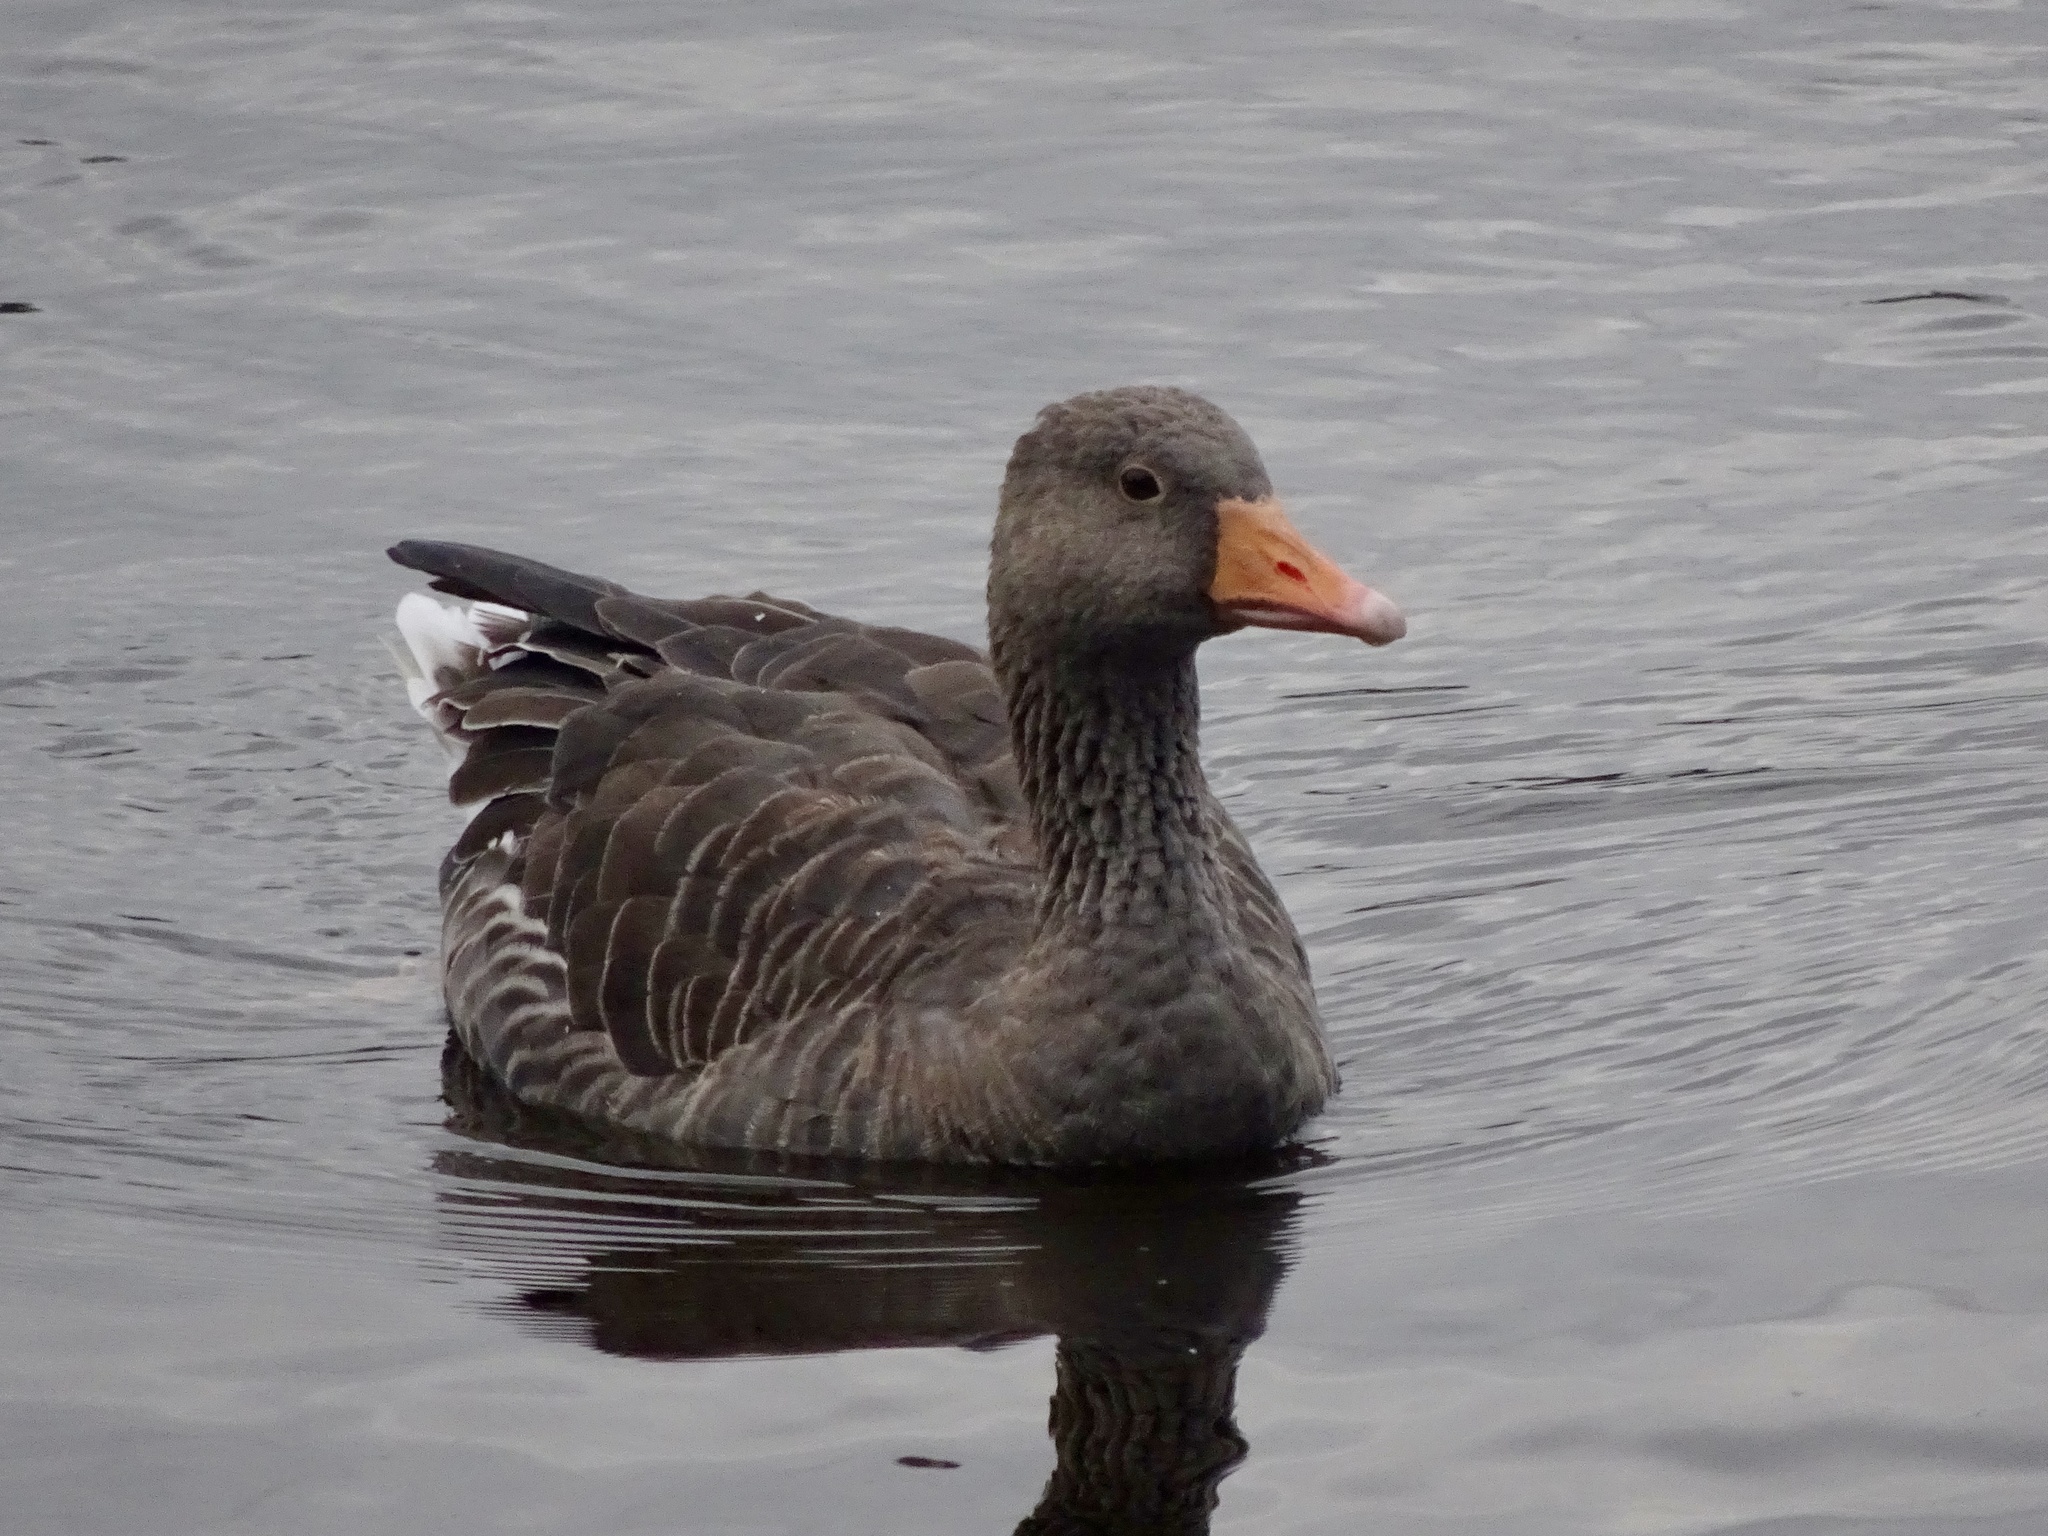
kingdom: Animalia
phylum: Chordata
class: Aves
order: Anseriformes
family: Anatidae
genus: Anser
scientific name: Anser anser
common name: Greylag goose
